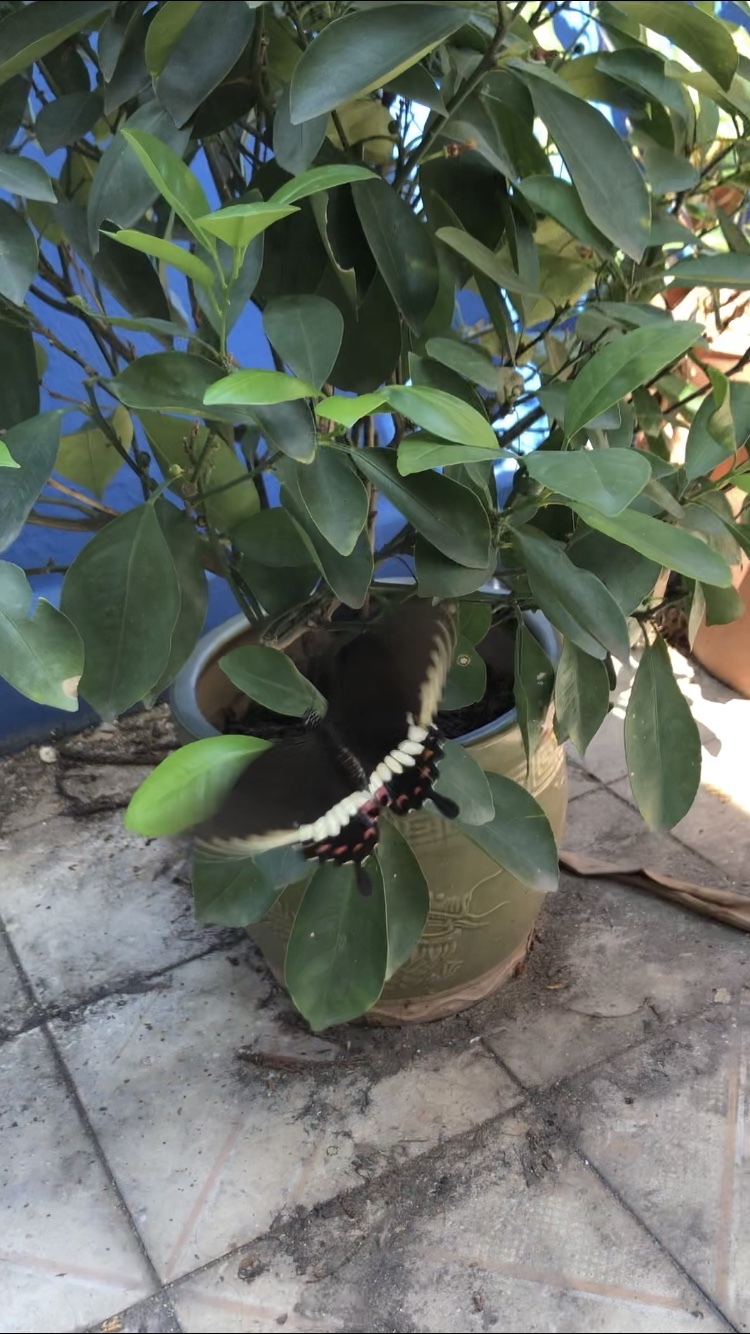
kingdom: Animalia
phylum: Arthropoda
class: Insecta
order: Lepidoptera
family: Papilionidae
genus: Papilio
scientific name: Papilio polytes
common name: Common mormon
